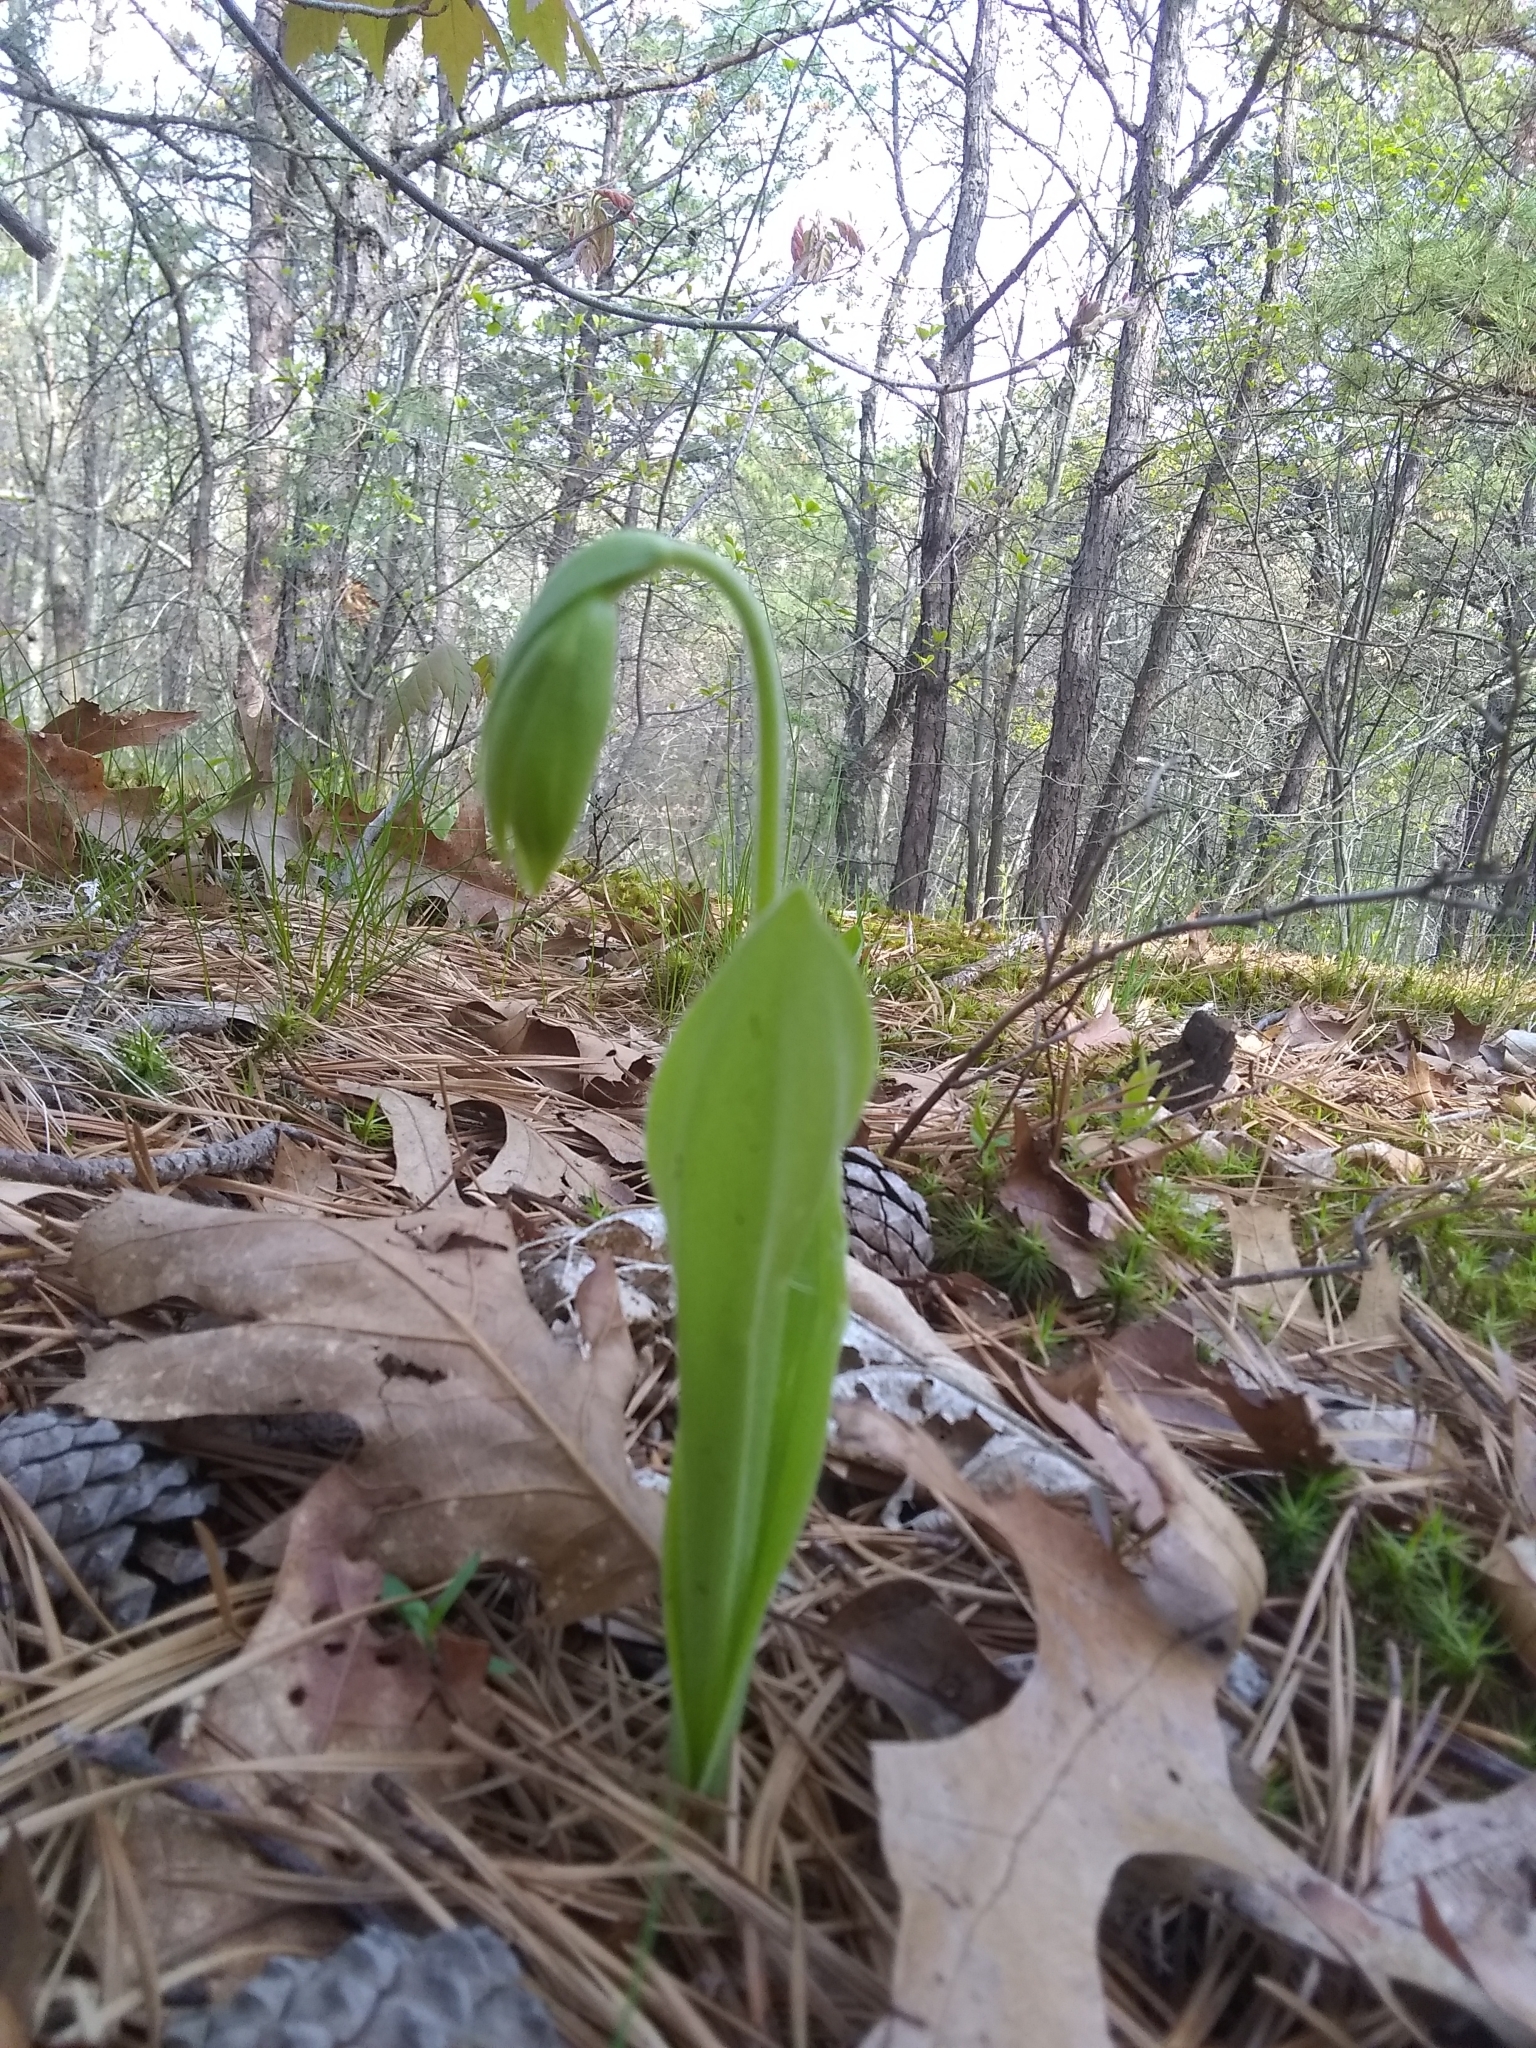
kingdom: Plantae
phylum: Tracheophyta
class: Liliopsida
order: Asparagales
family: Orchidaceae
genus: Cypripedium
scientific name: Cypripedium acaule
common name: Pink lady's-slipper
